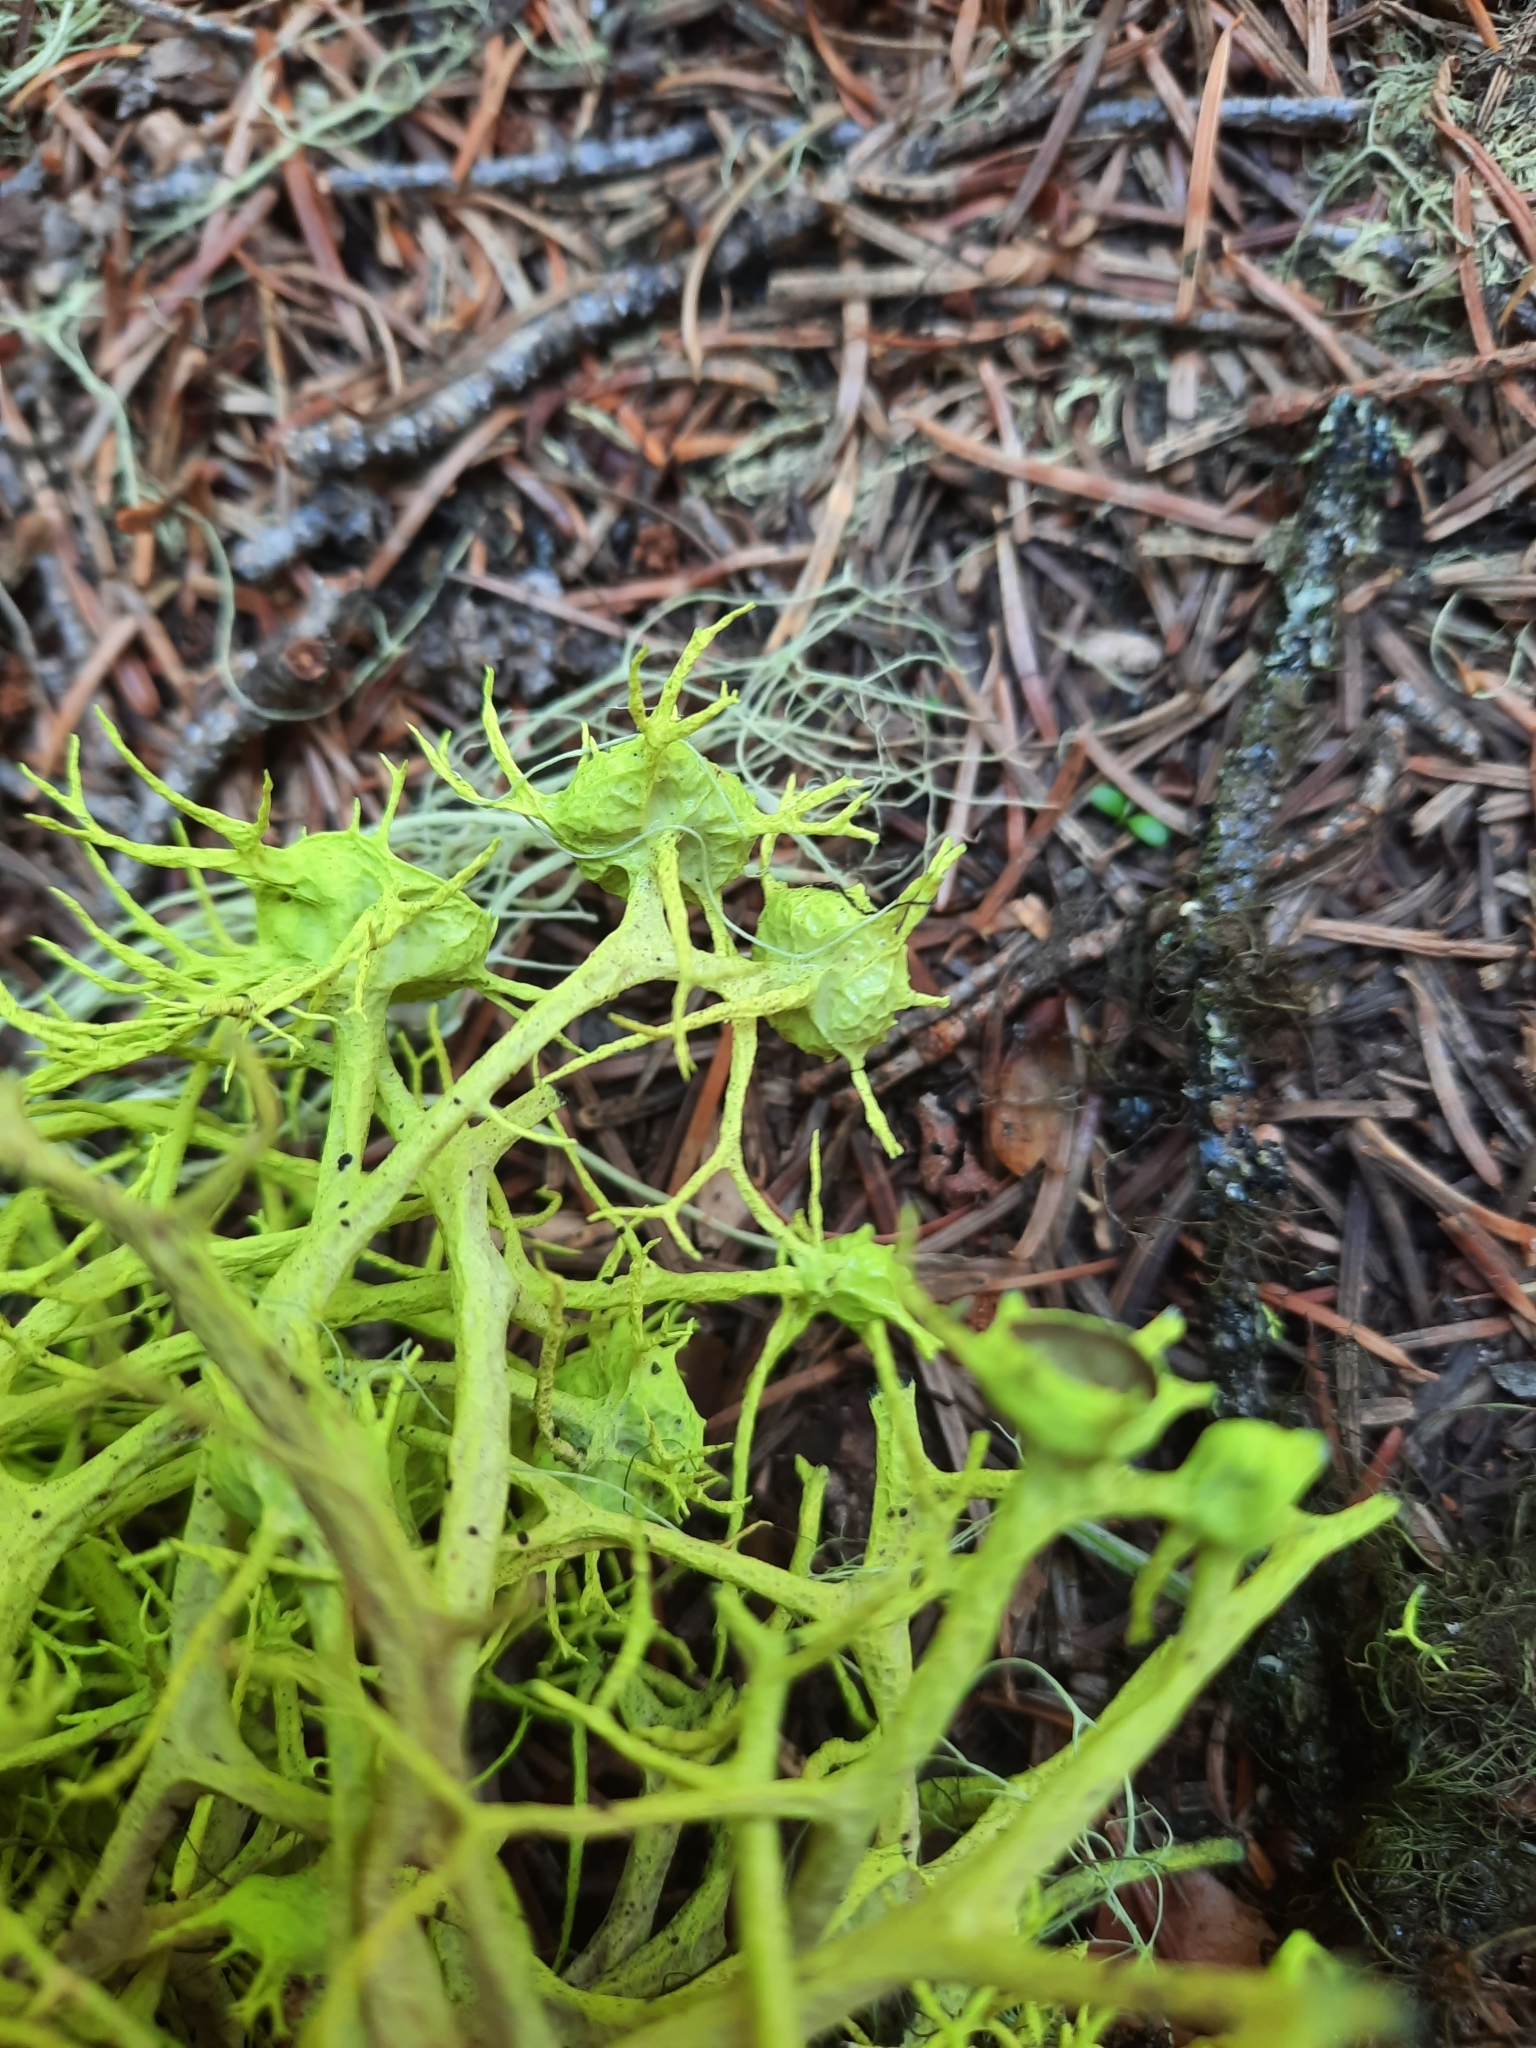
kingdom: Fungi
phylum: Ascomycota
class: Lecanoromycetes
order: Lecanorales
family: Parmeliaceae
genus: Letharia
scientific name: Letharia columbiana
